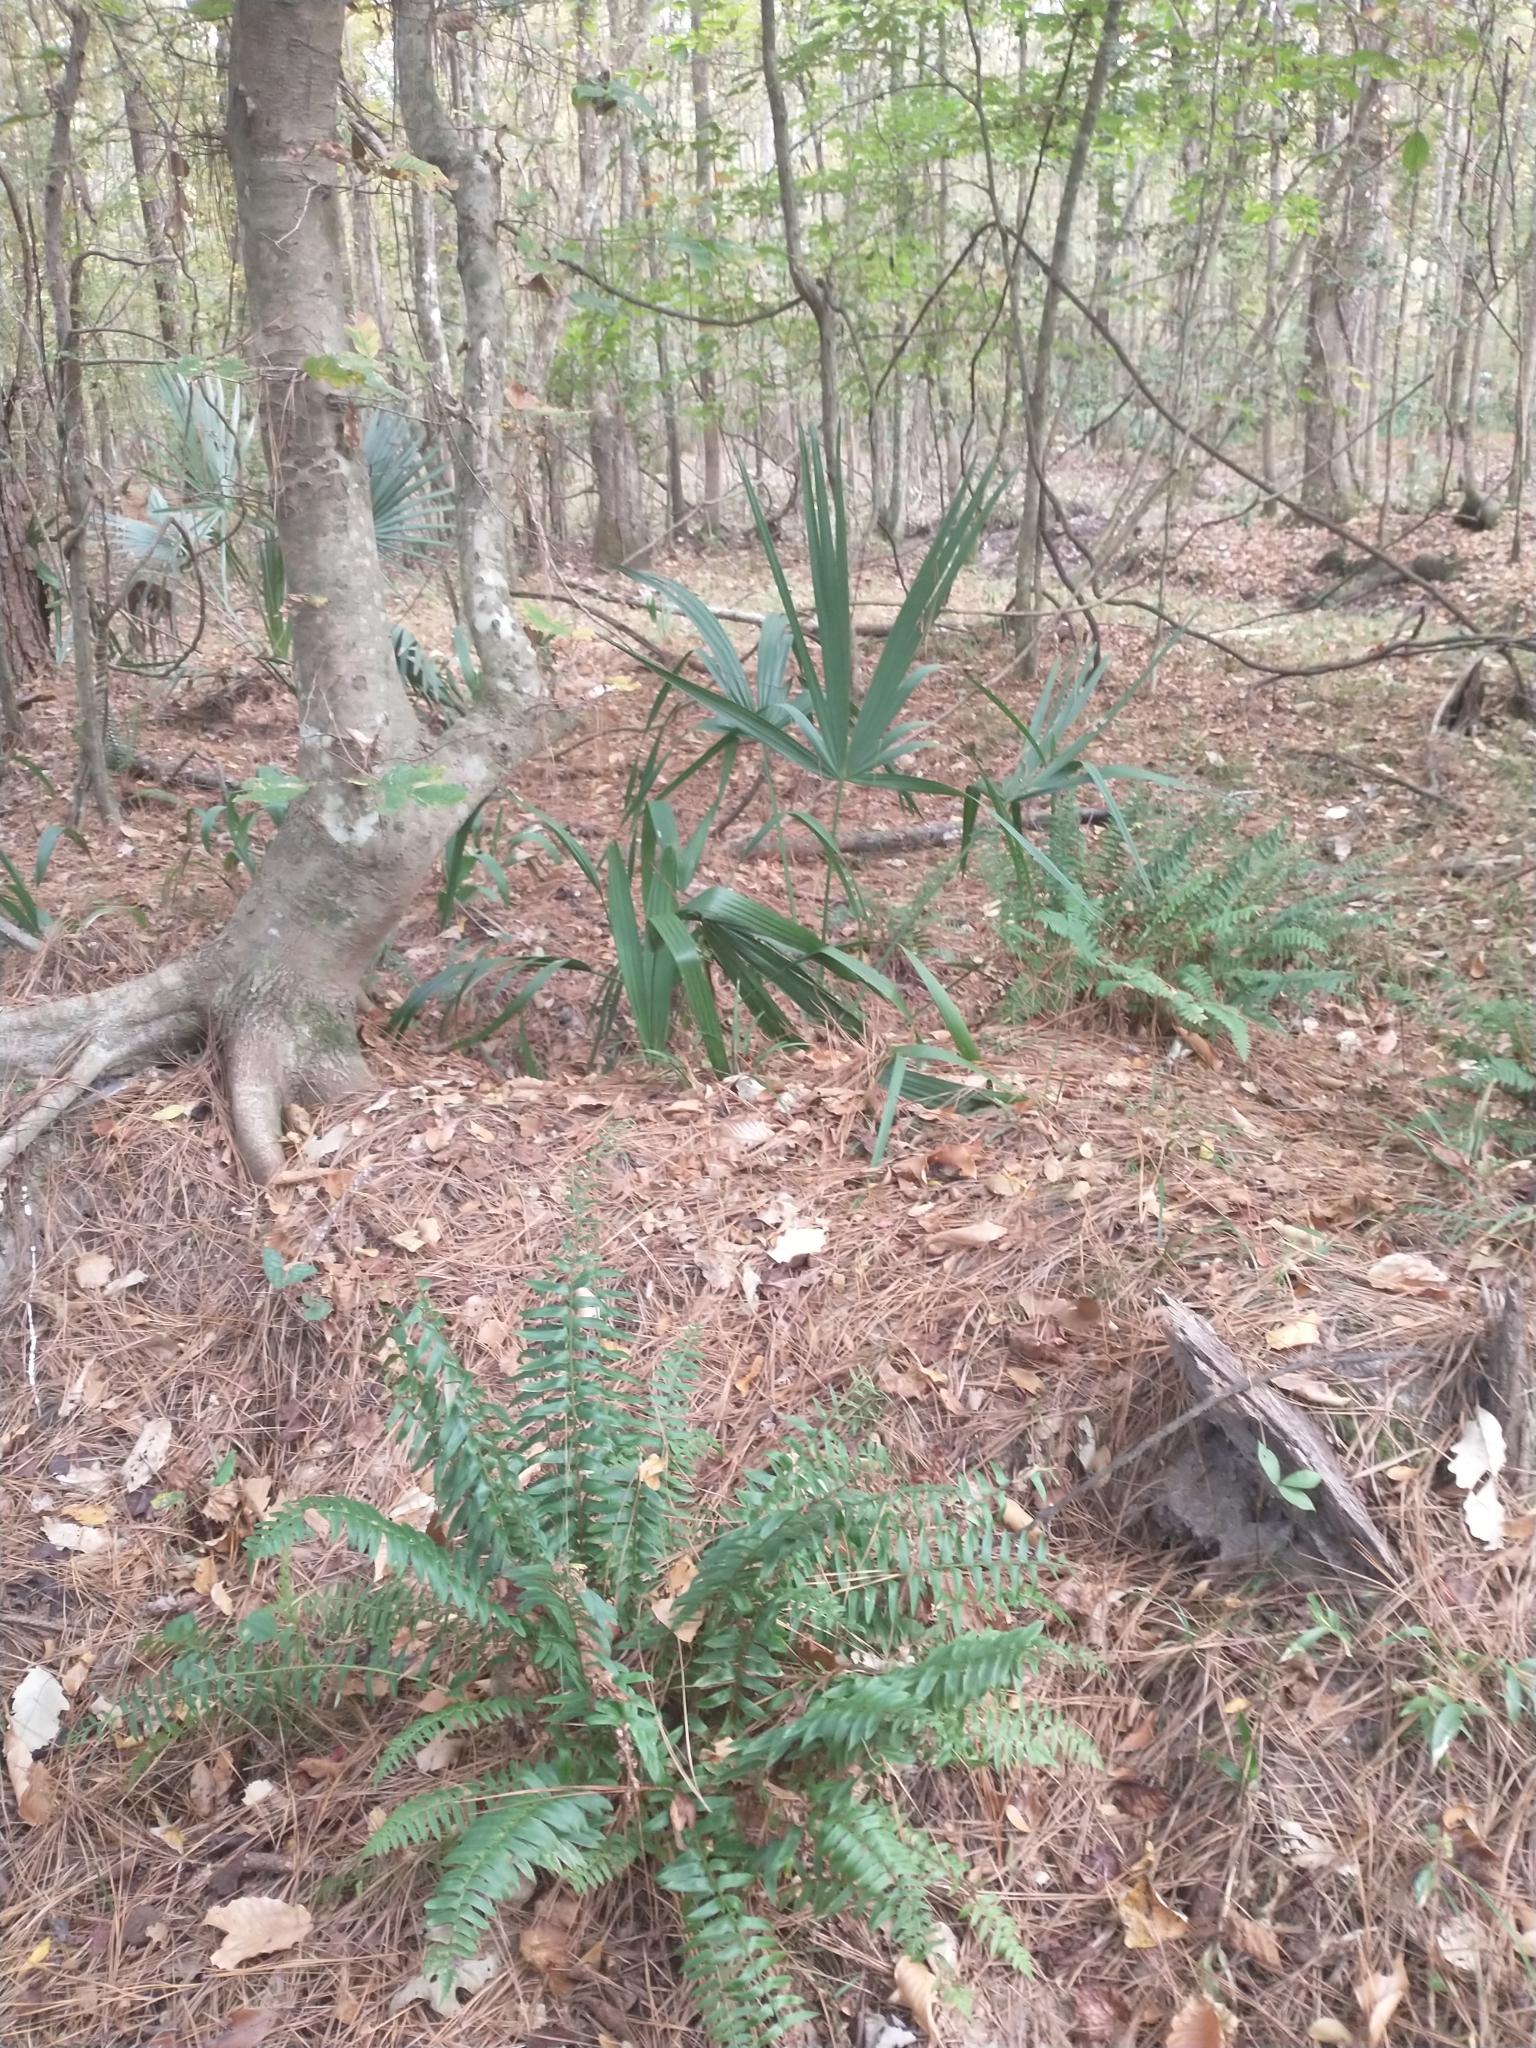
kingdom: Plantae
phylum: Tracheophyta
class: Polypodiopsida
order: Polypodiales
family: Dryopteridaceae
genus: Polystichum
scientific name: Polystichum acrostichoides
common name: Christmas fern
